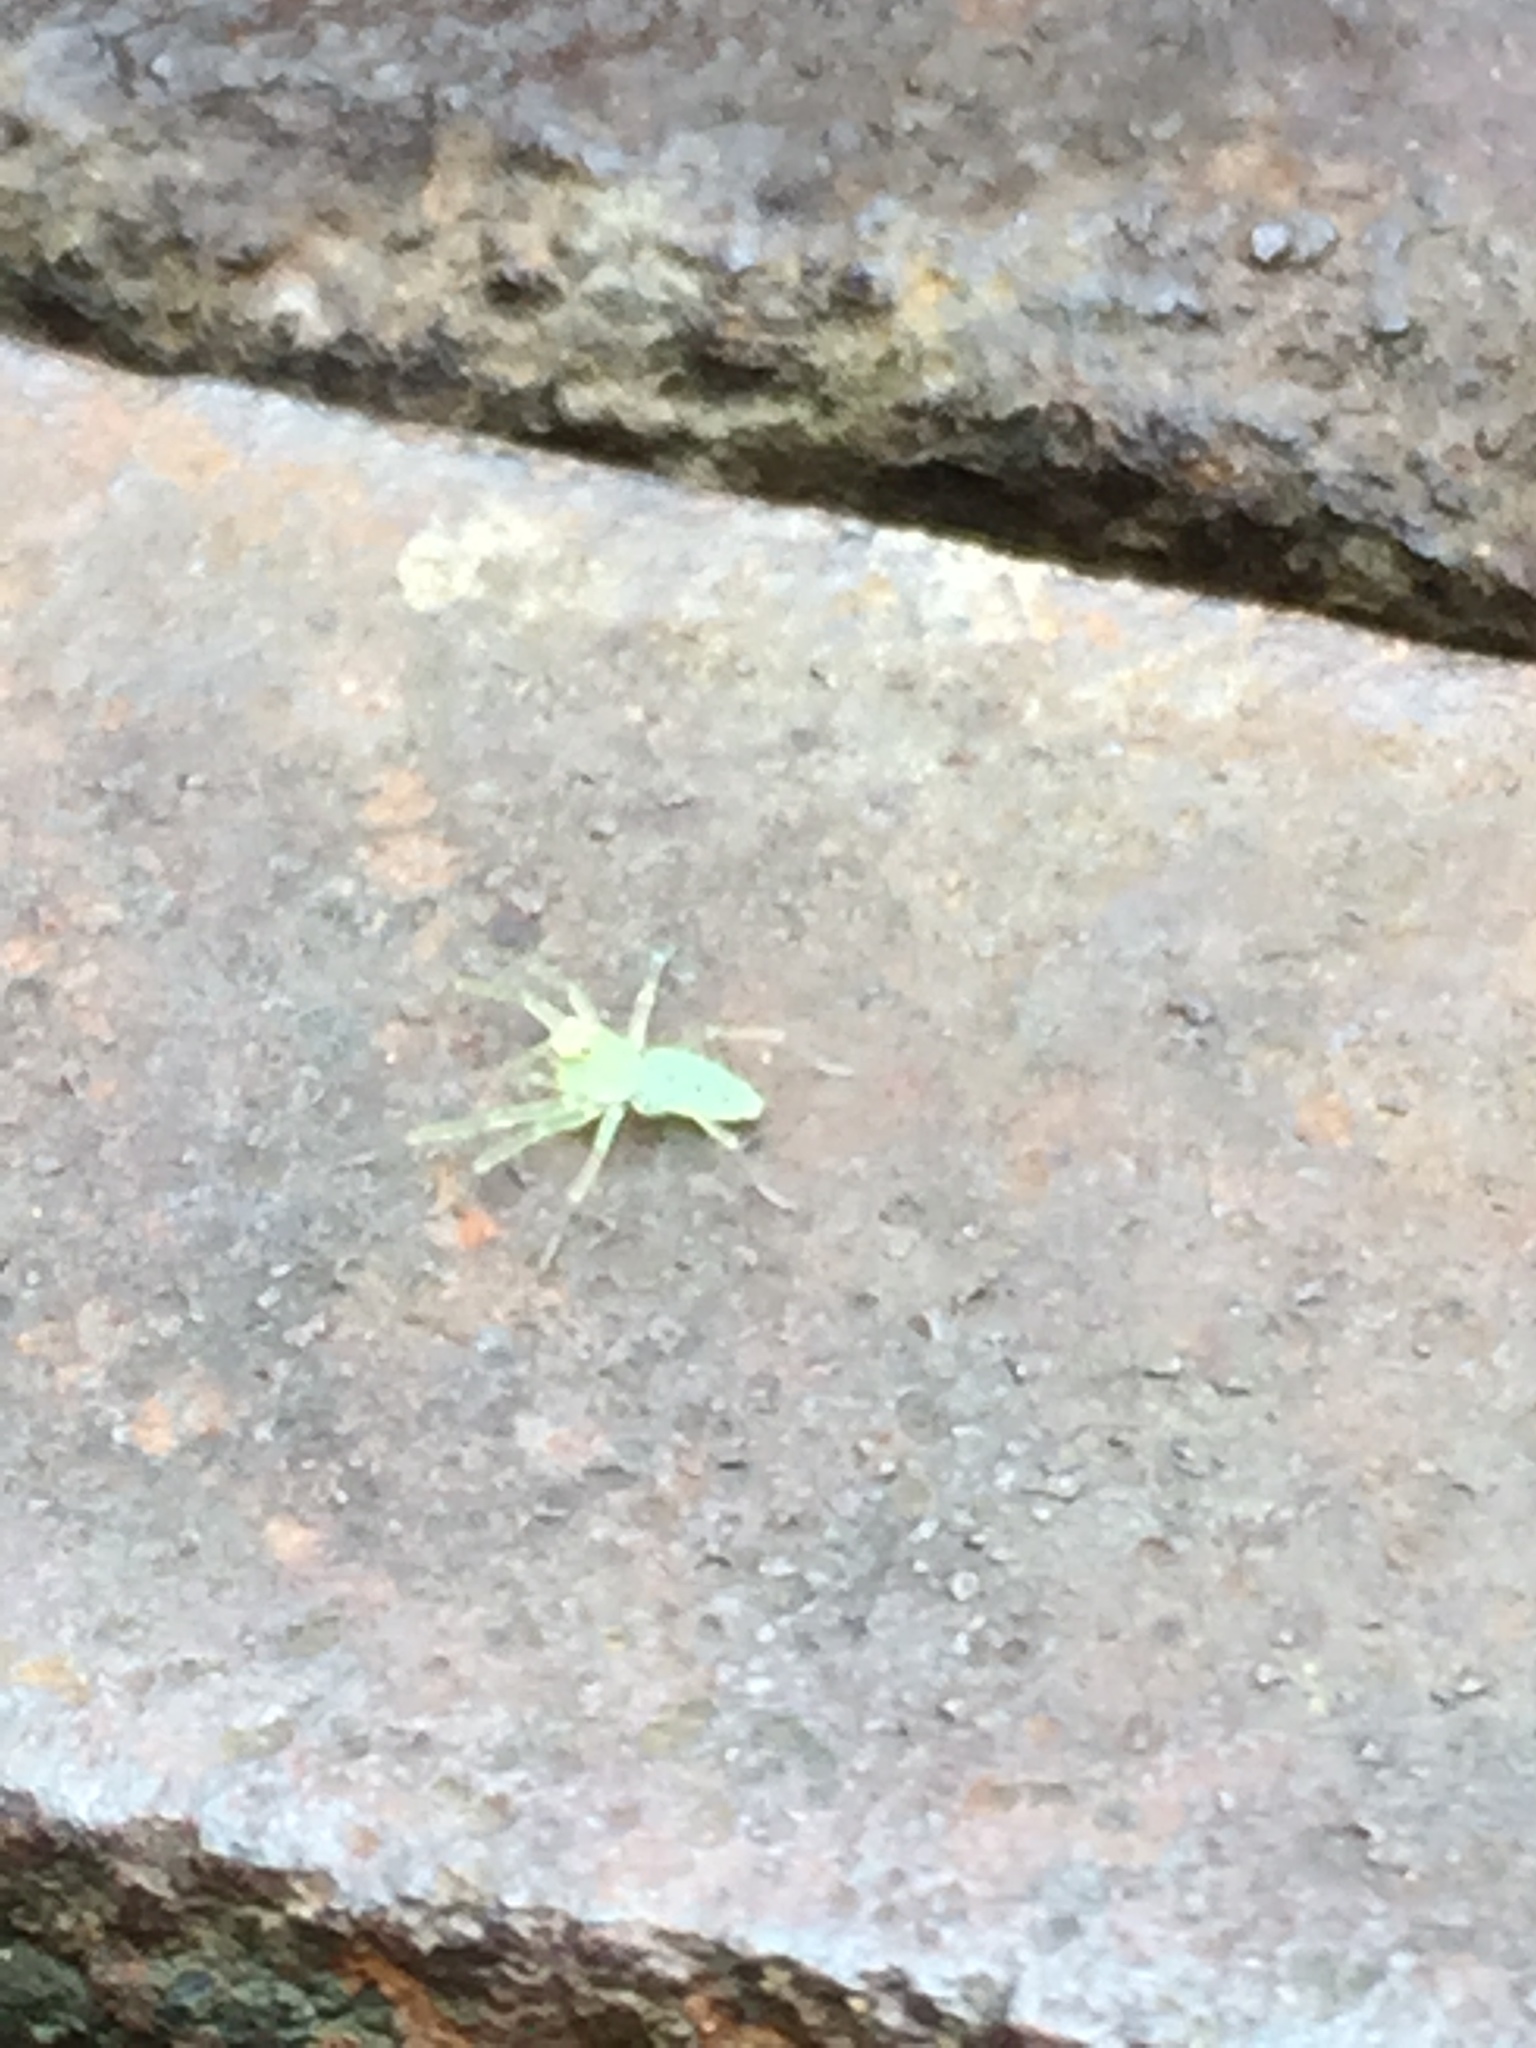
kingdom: Animalia
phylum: Arthropoda
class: Arachnida
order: Araneae
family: Salticidae
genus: Lyssomanes
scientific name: Lyssomanes viridis
